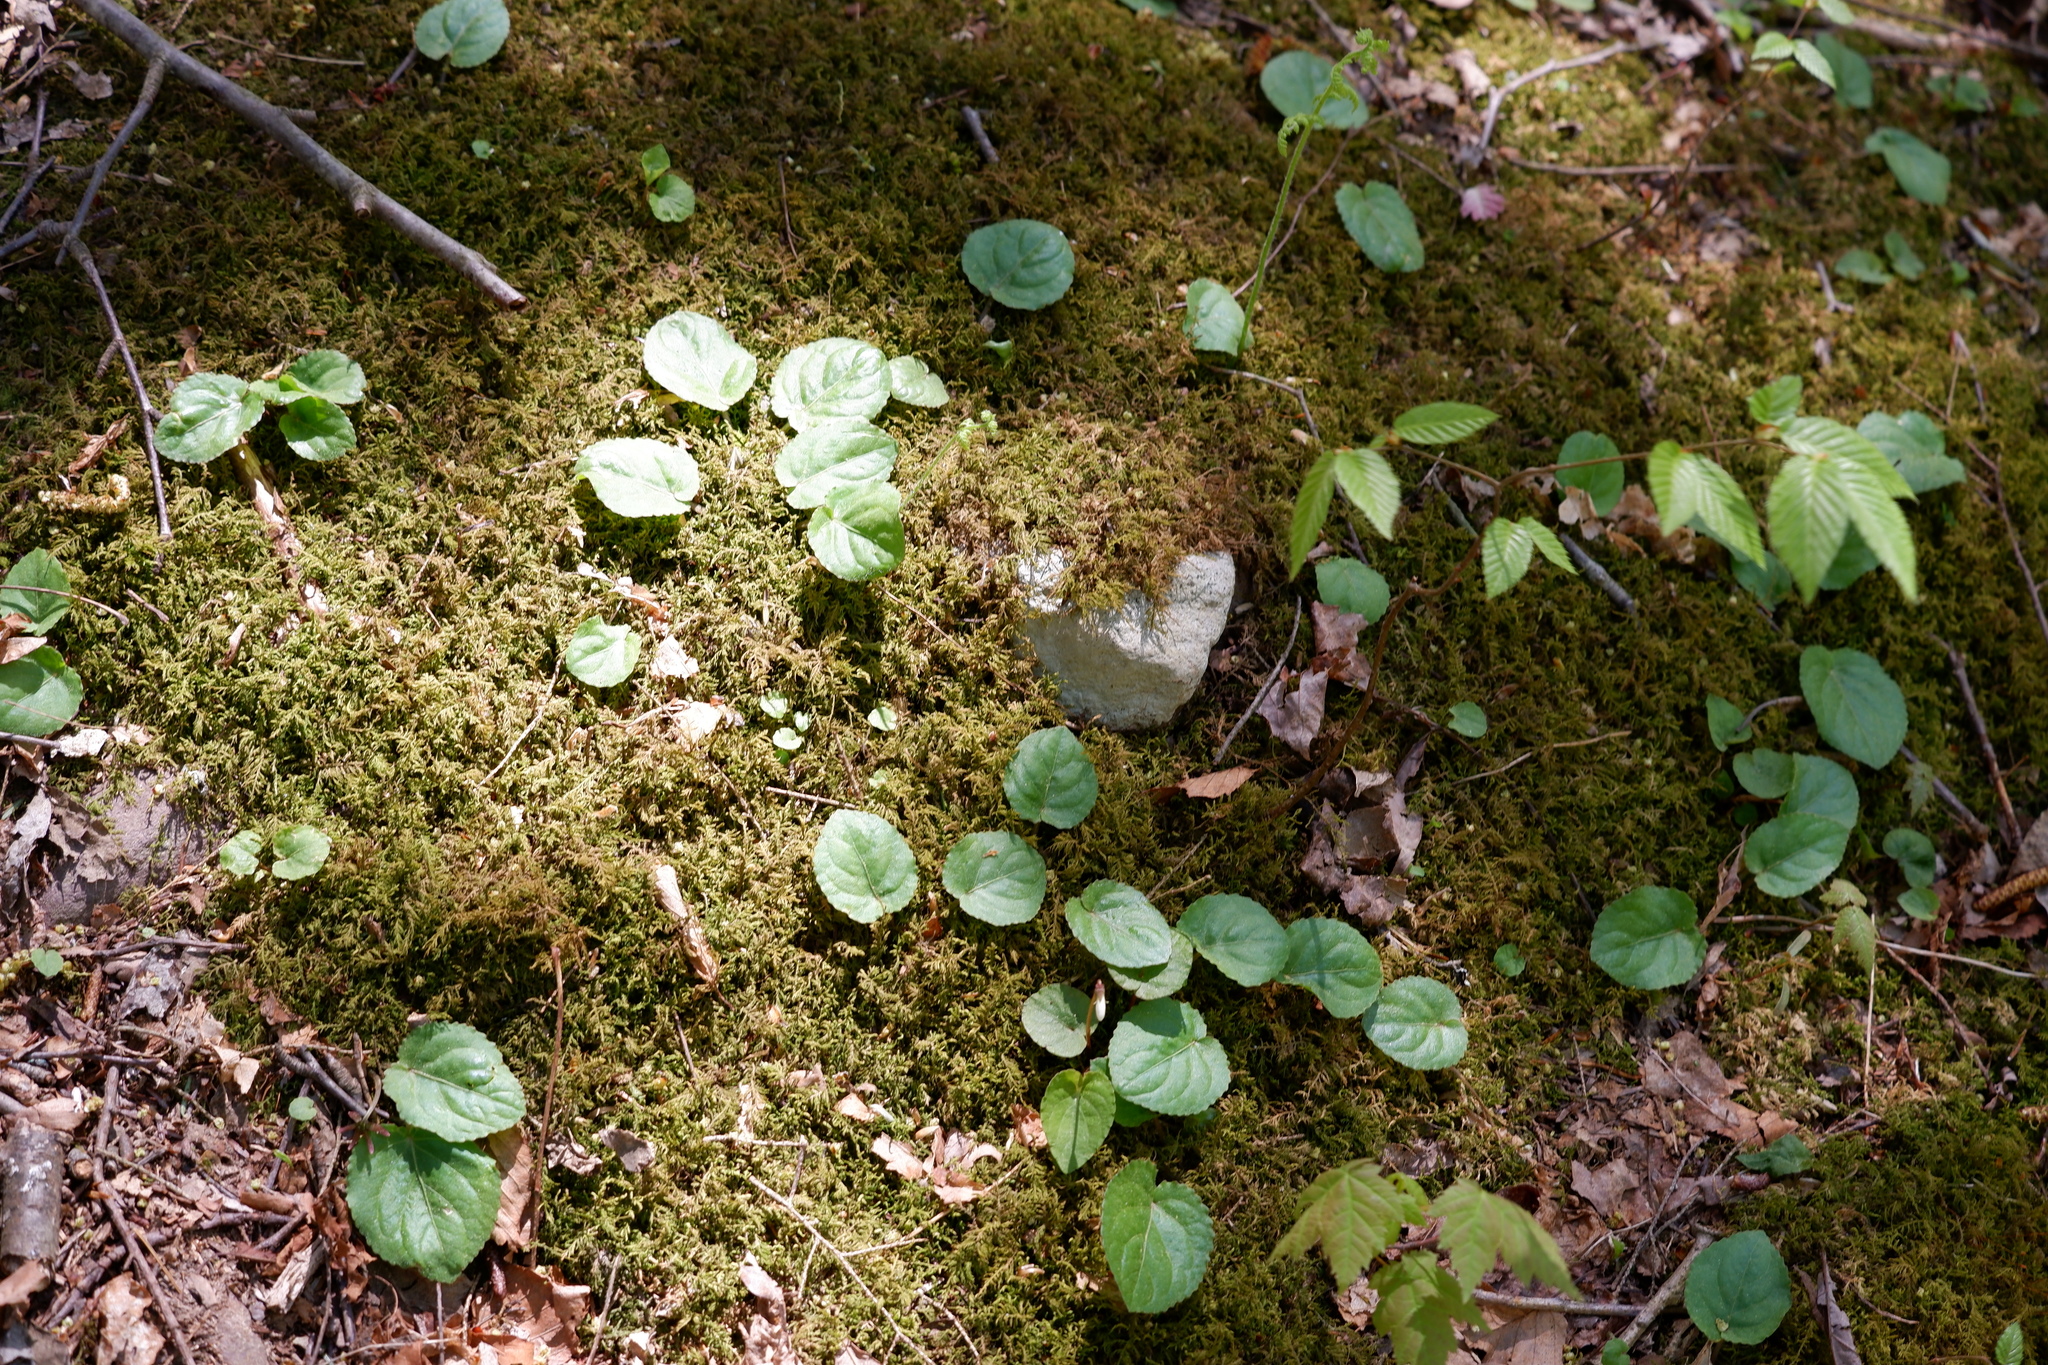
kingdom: Plantae
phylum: Tracheophyta
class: Magnoliopsida
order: Malpighiales
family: Violaceae
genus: Viola
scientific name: Viola rotundifolia
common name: Early yellow violet
